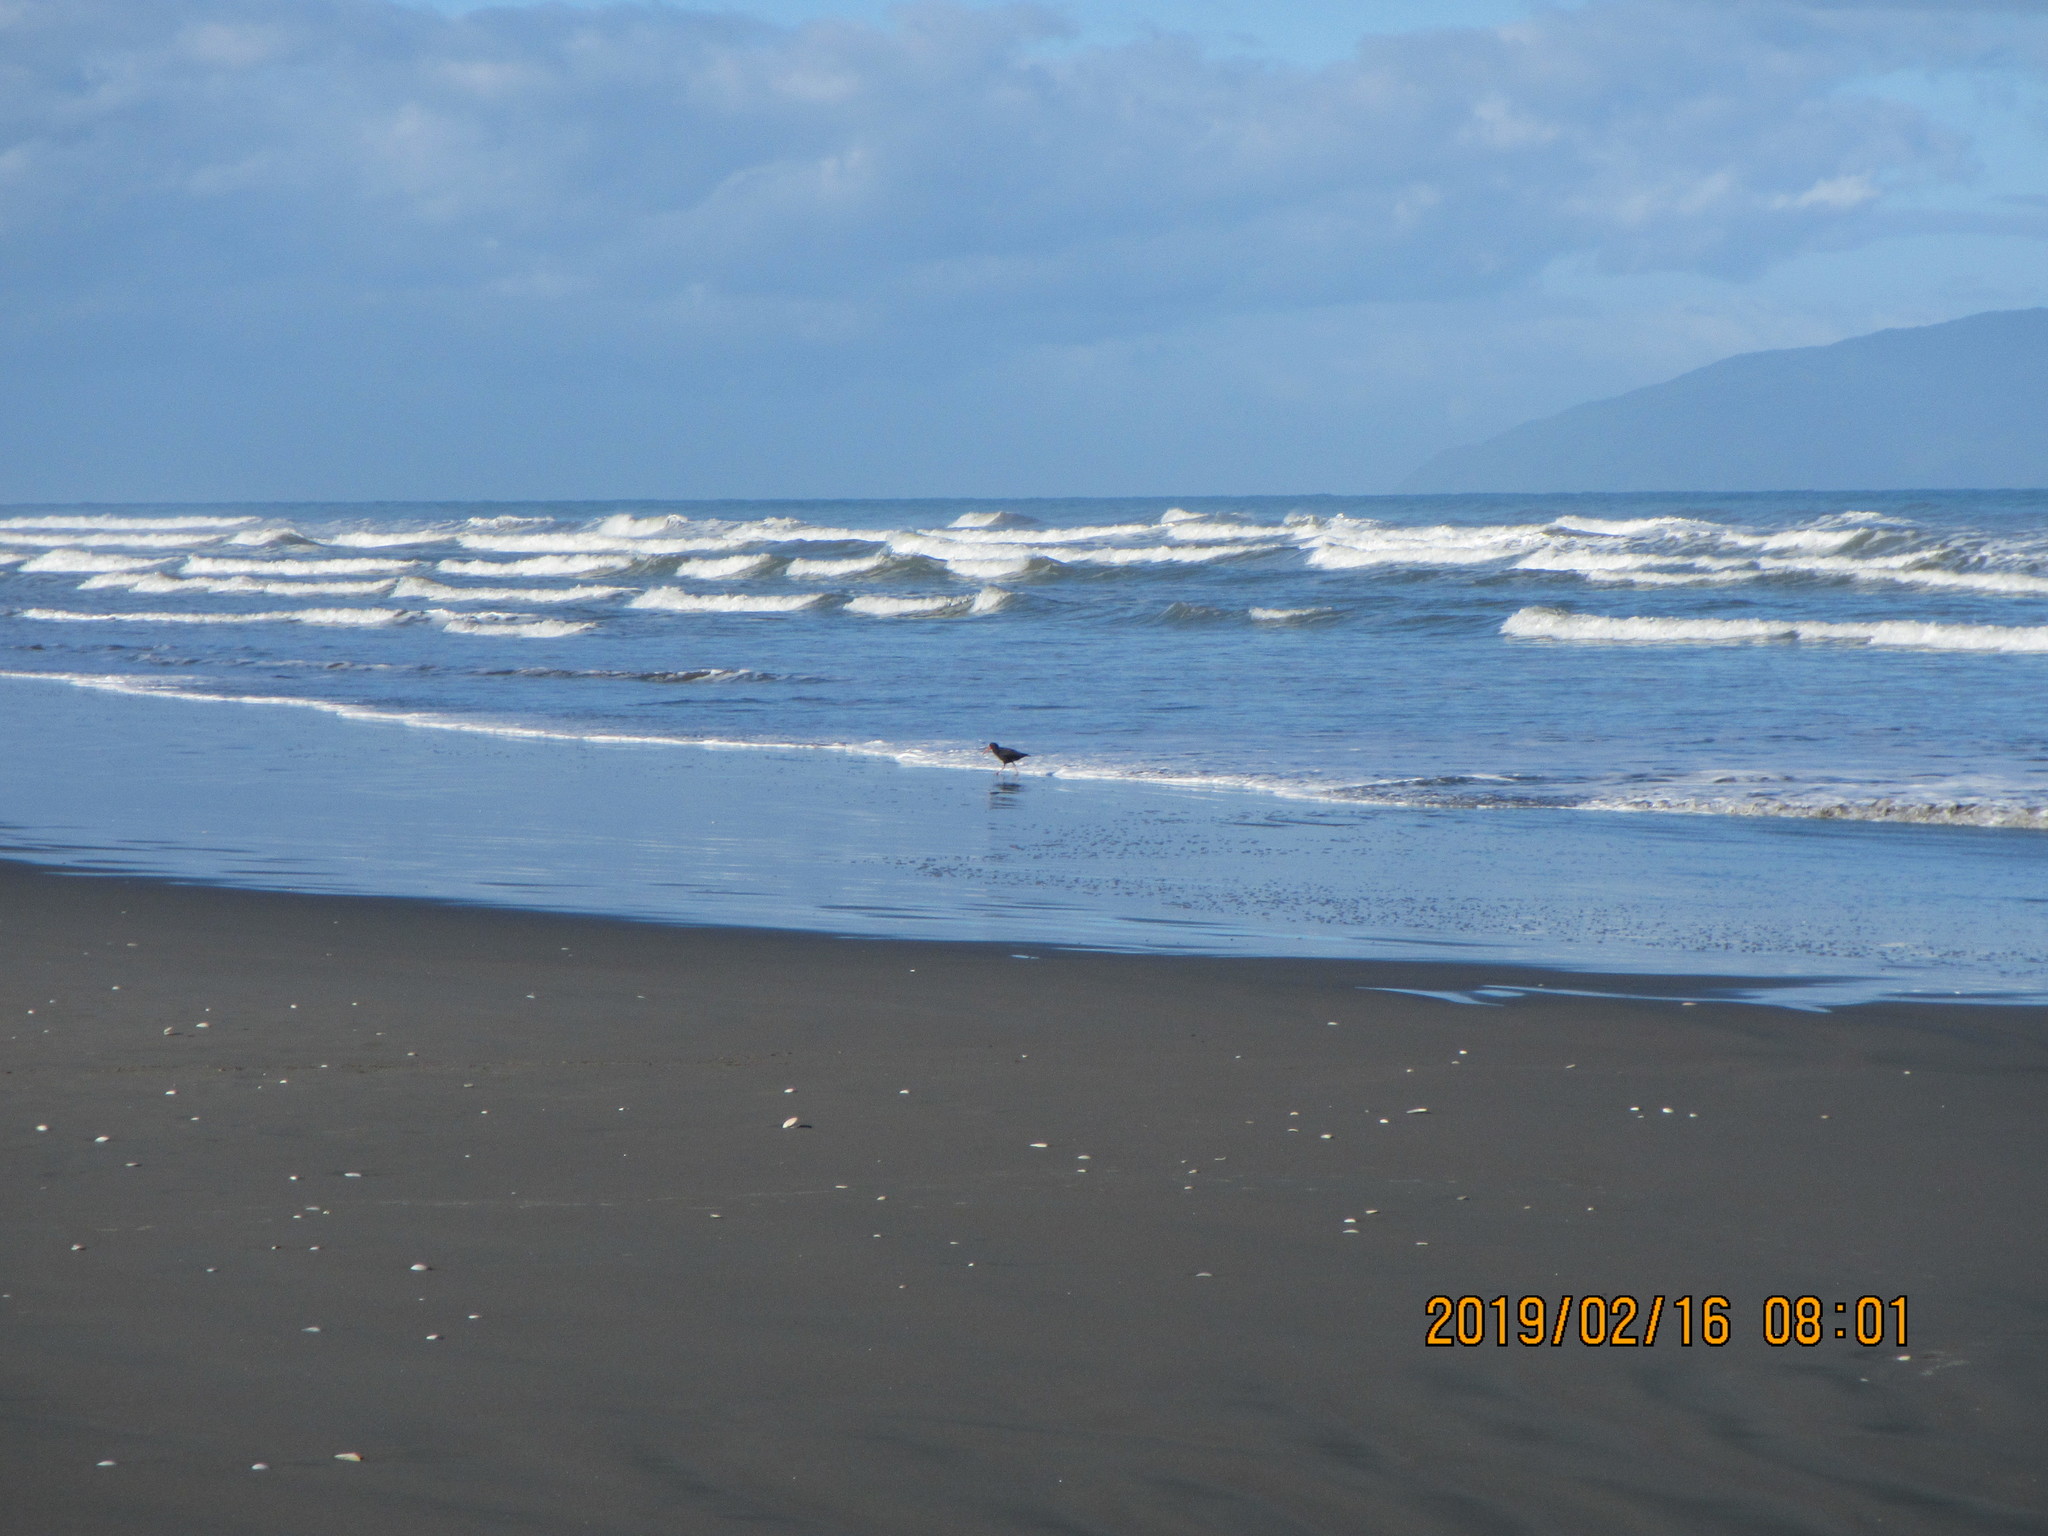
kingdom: Animalia
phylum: Chordata
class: Aves
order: Charadriiformes
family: Haematopodidae
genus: Haematopus
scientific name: Haematopus unicolor
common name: Variable oystercatcher
